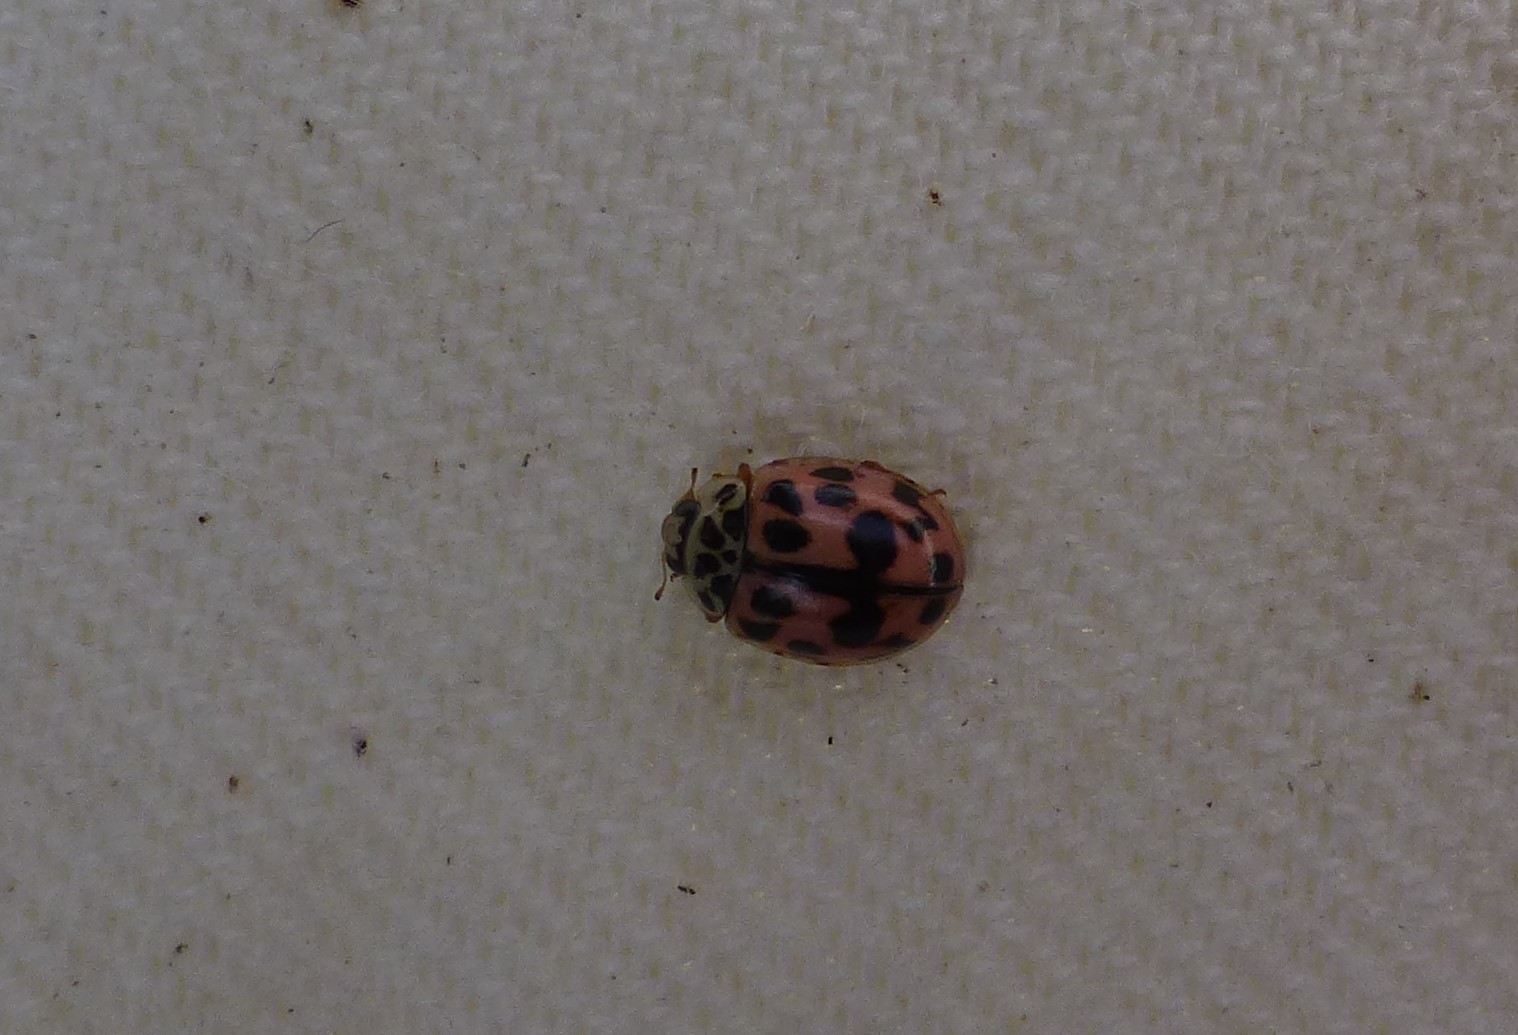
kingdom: Animalia
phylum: Arthropoda
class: Insecta
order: Coleoptera
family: Coccinellidae
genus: Oenopia
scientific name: Oenopia conglobata
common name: Ladybird beetle
